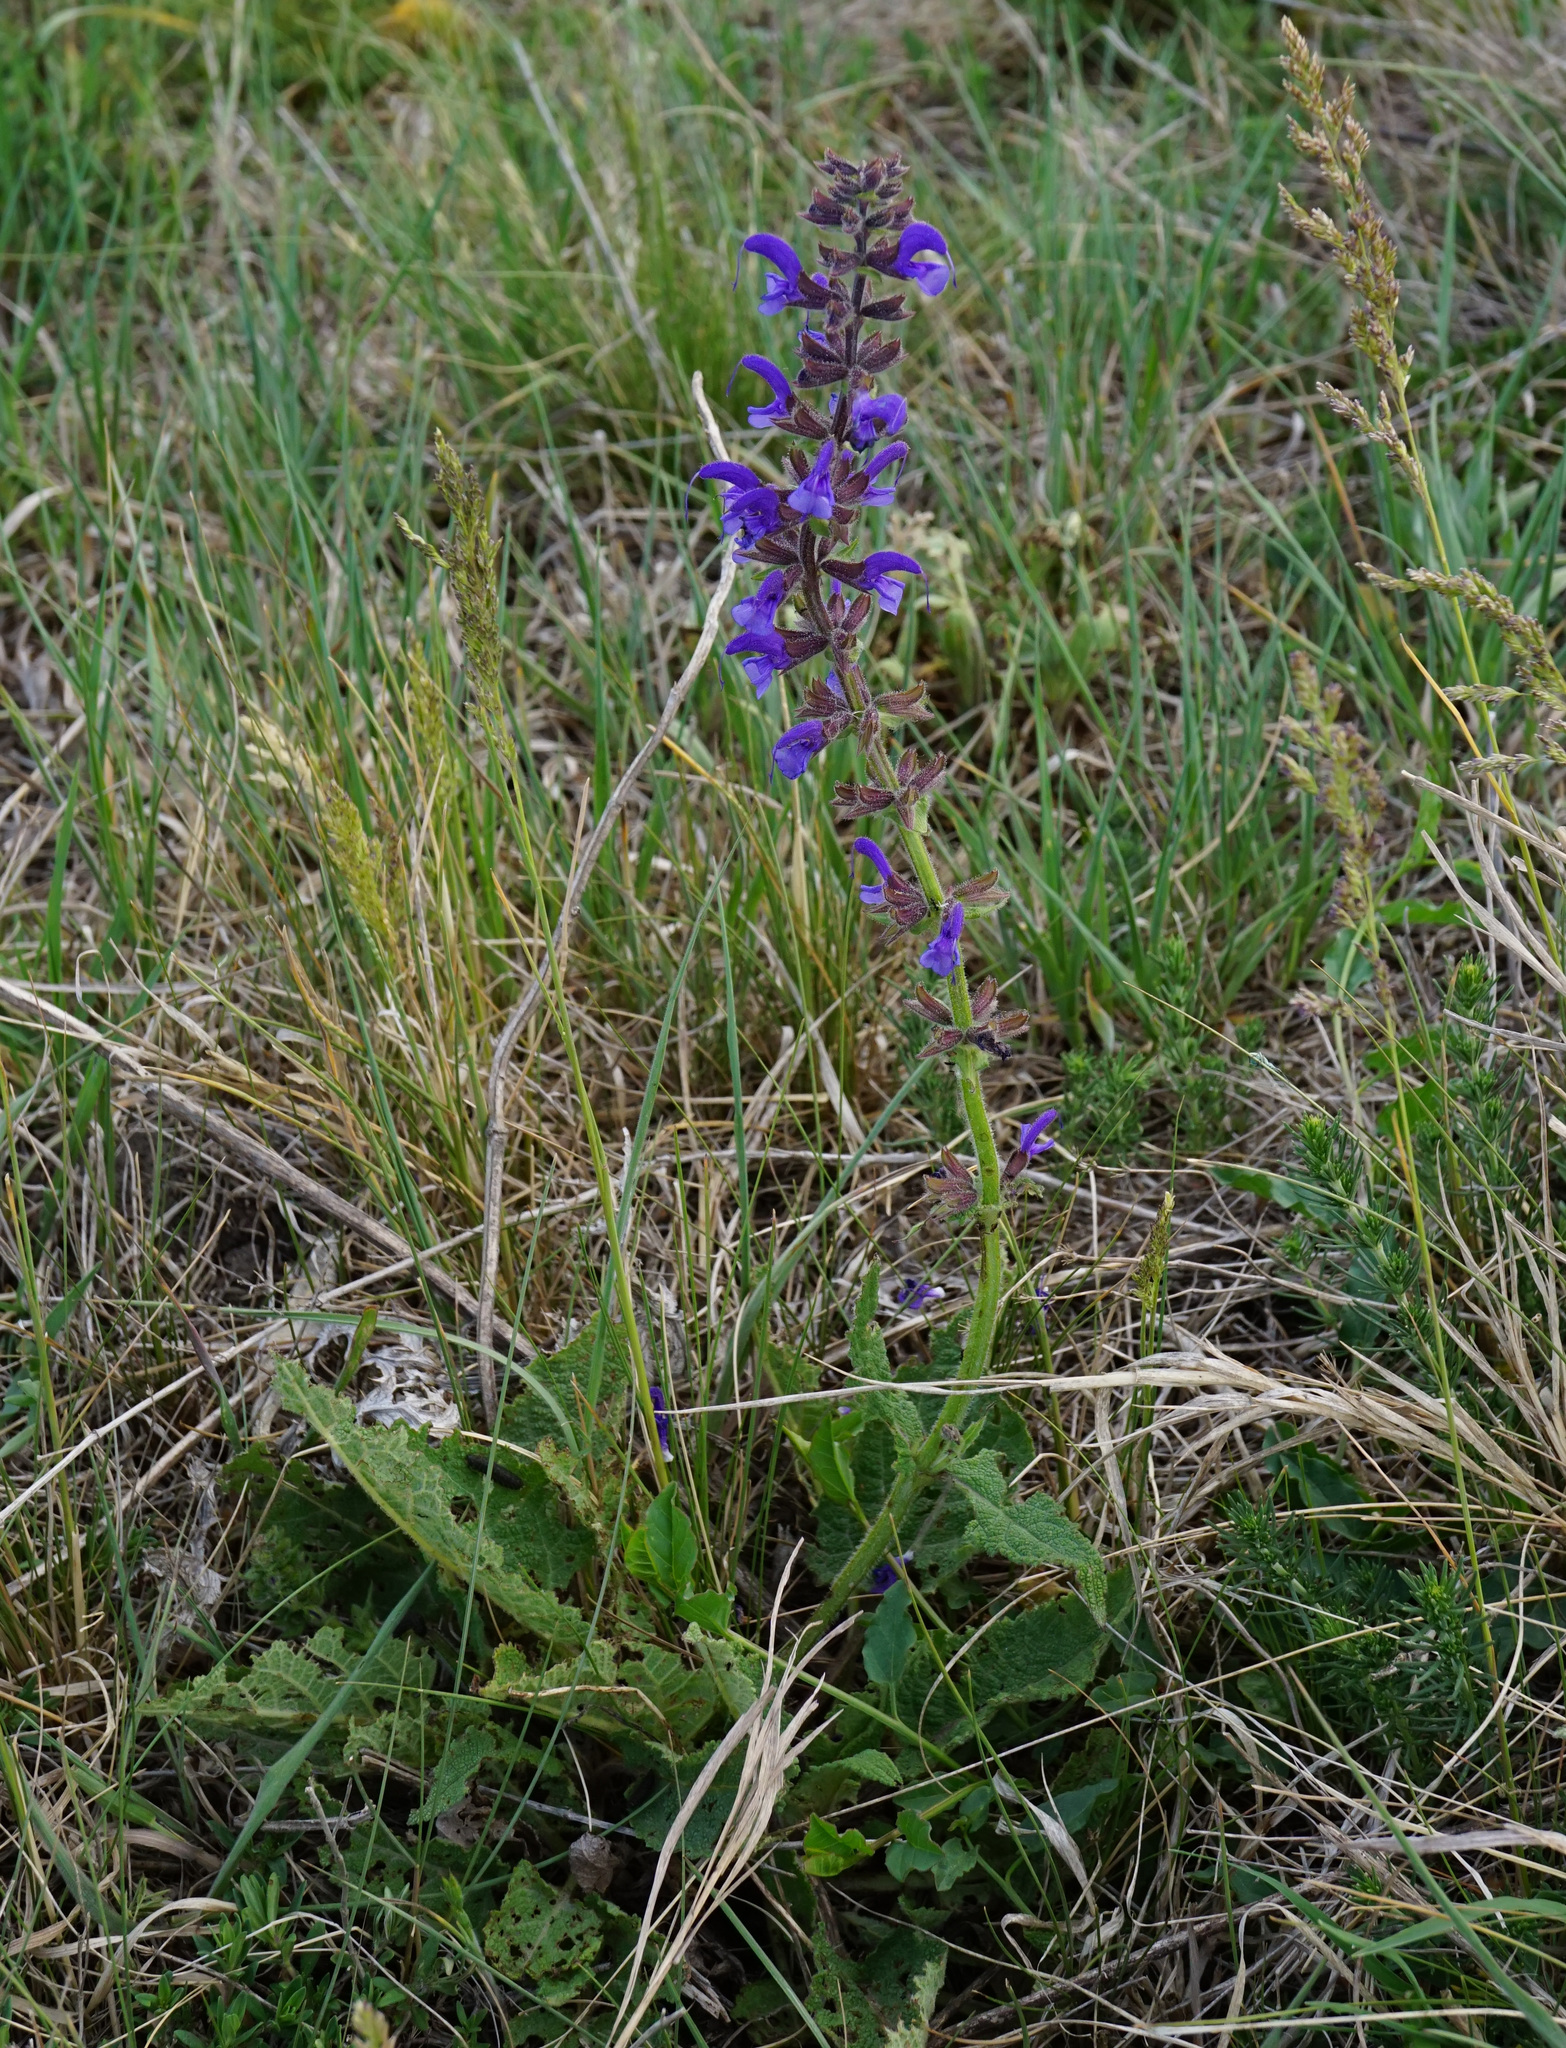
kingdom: Plantae
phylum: Tracheophyta
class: Magnoliopsida
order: Lamiales
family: Lamiaceae
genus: Salvia
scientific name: Salvia pratensis
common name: Meadow sage
